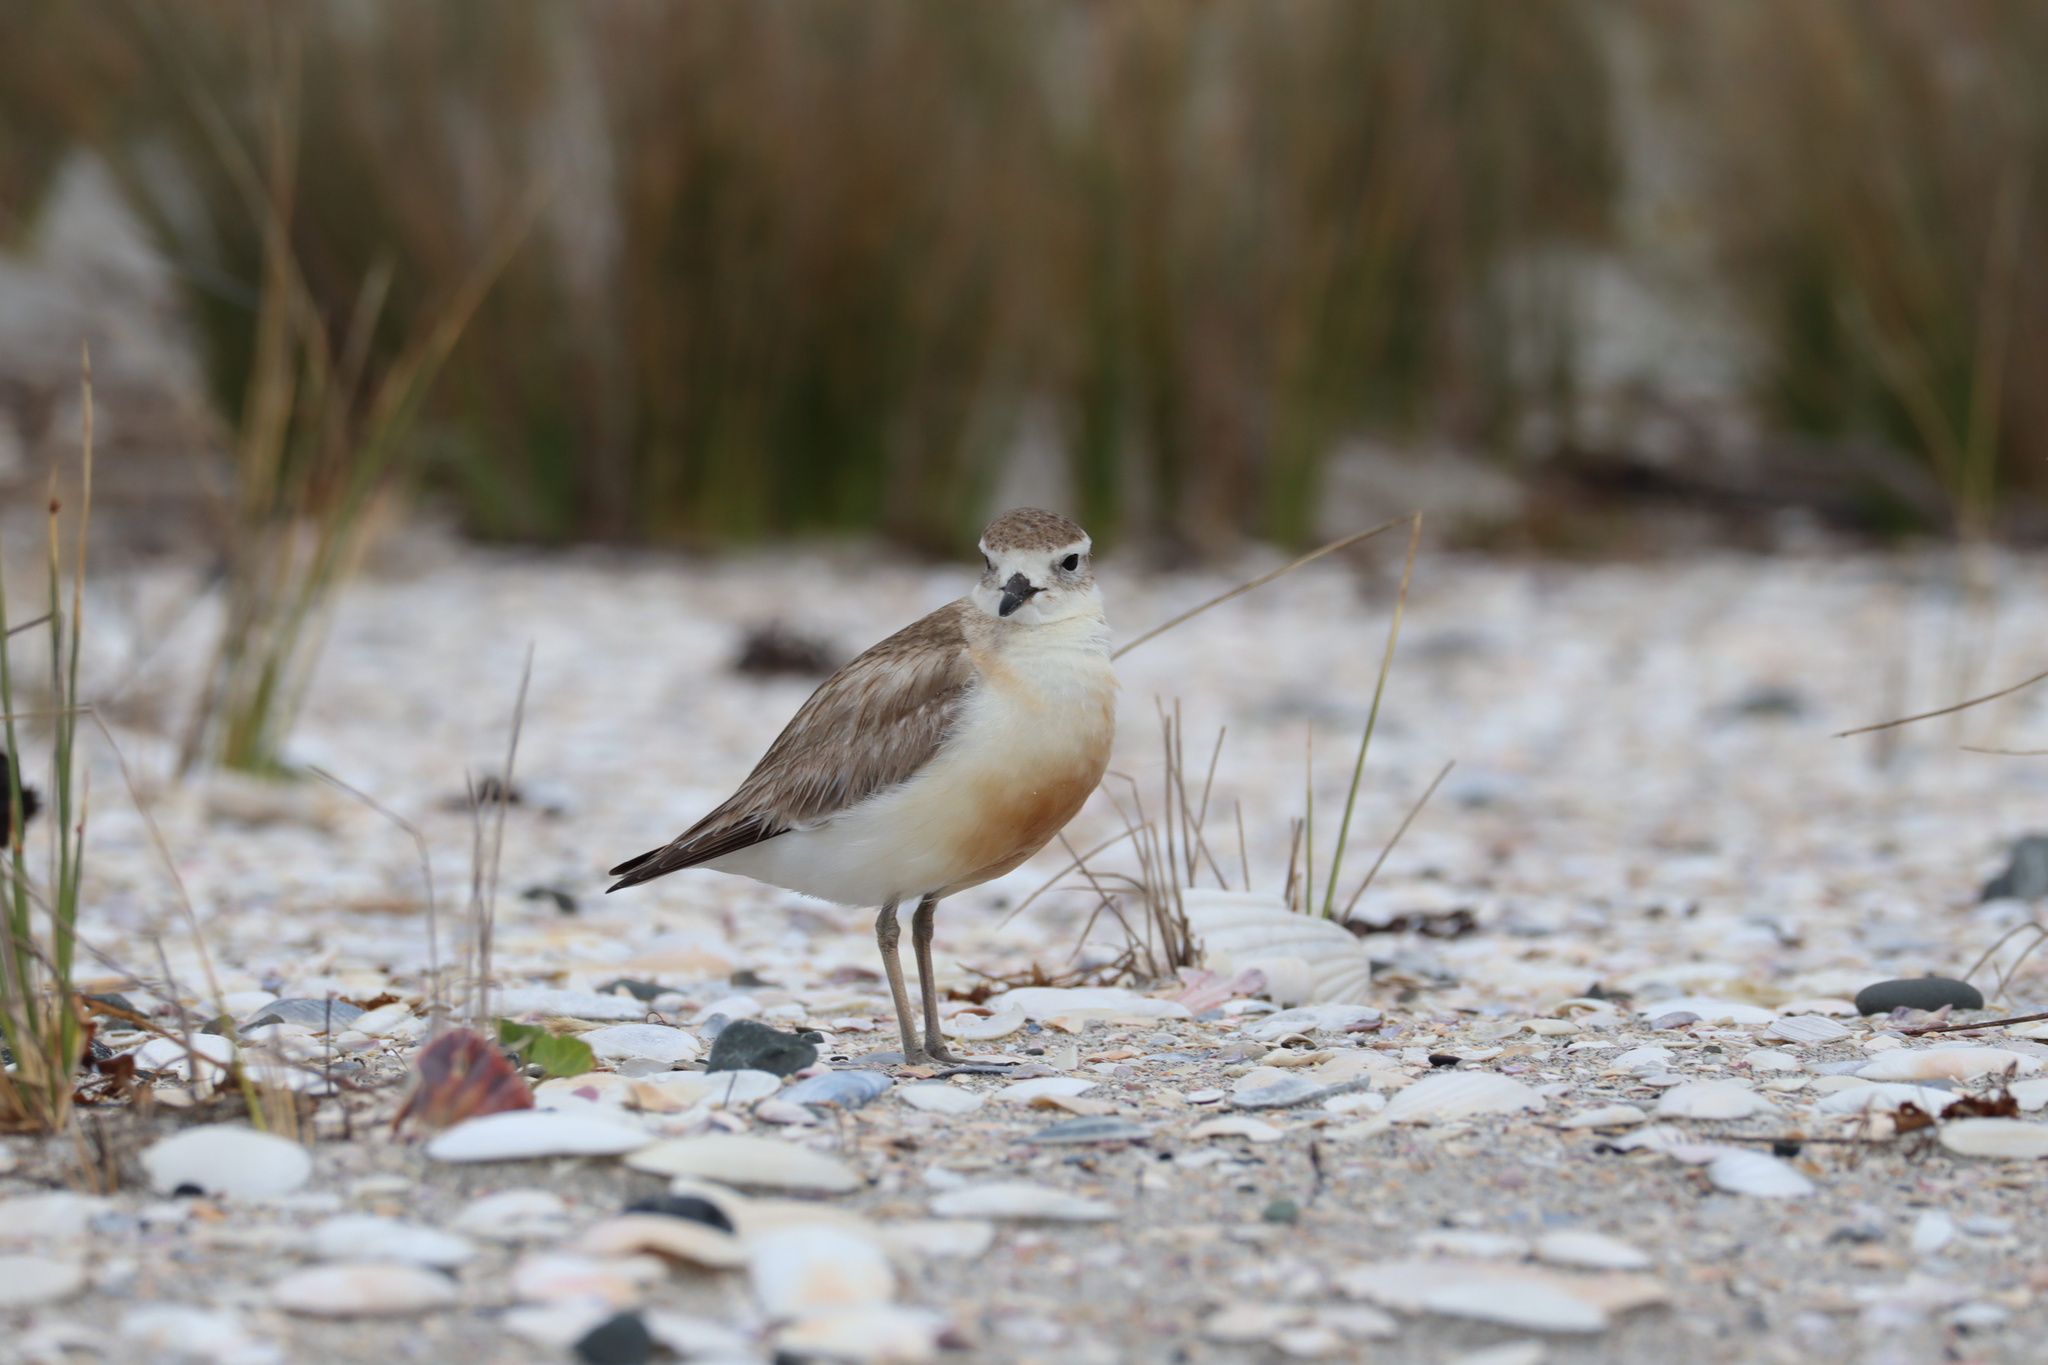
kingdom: Animalia
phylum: Chordata
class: Aves
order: Charadriiformes
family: Charadriidae
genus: Anarhynchus
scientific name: Anarhynchus
